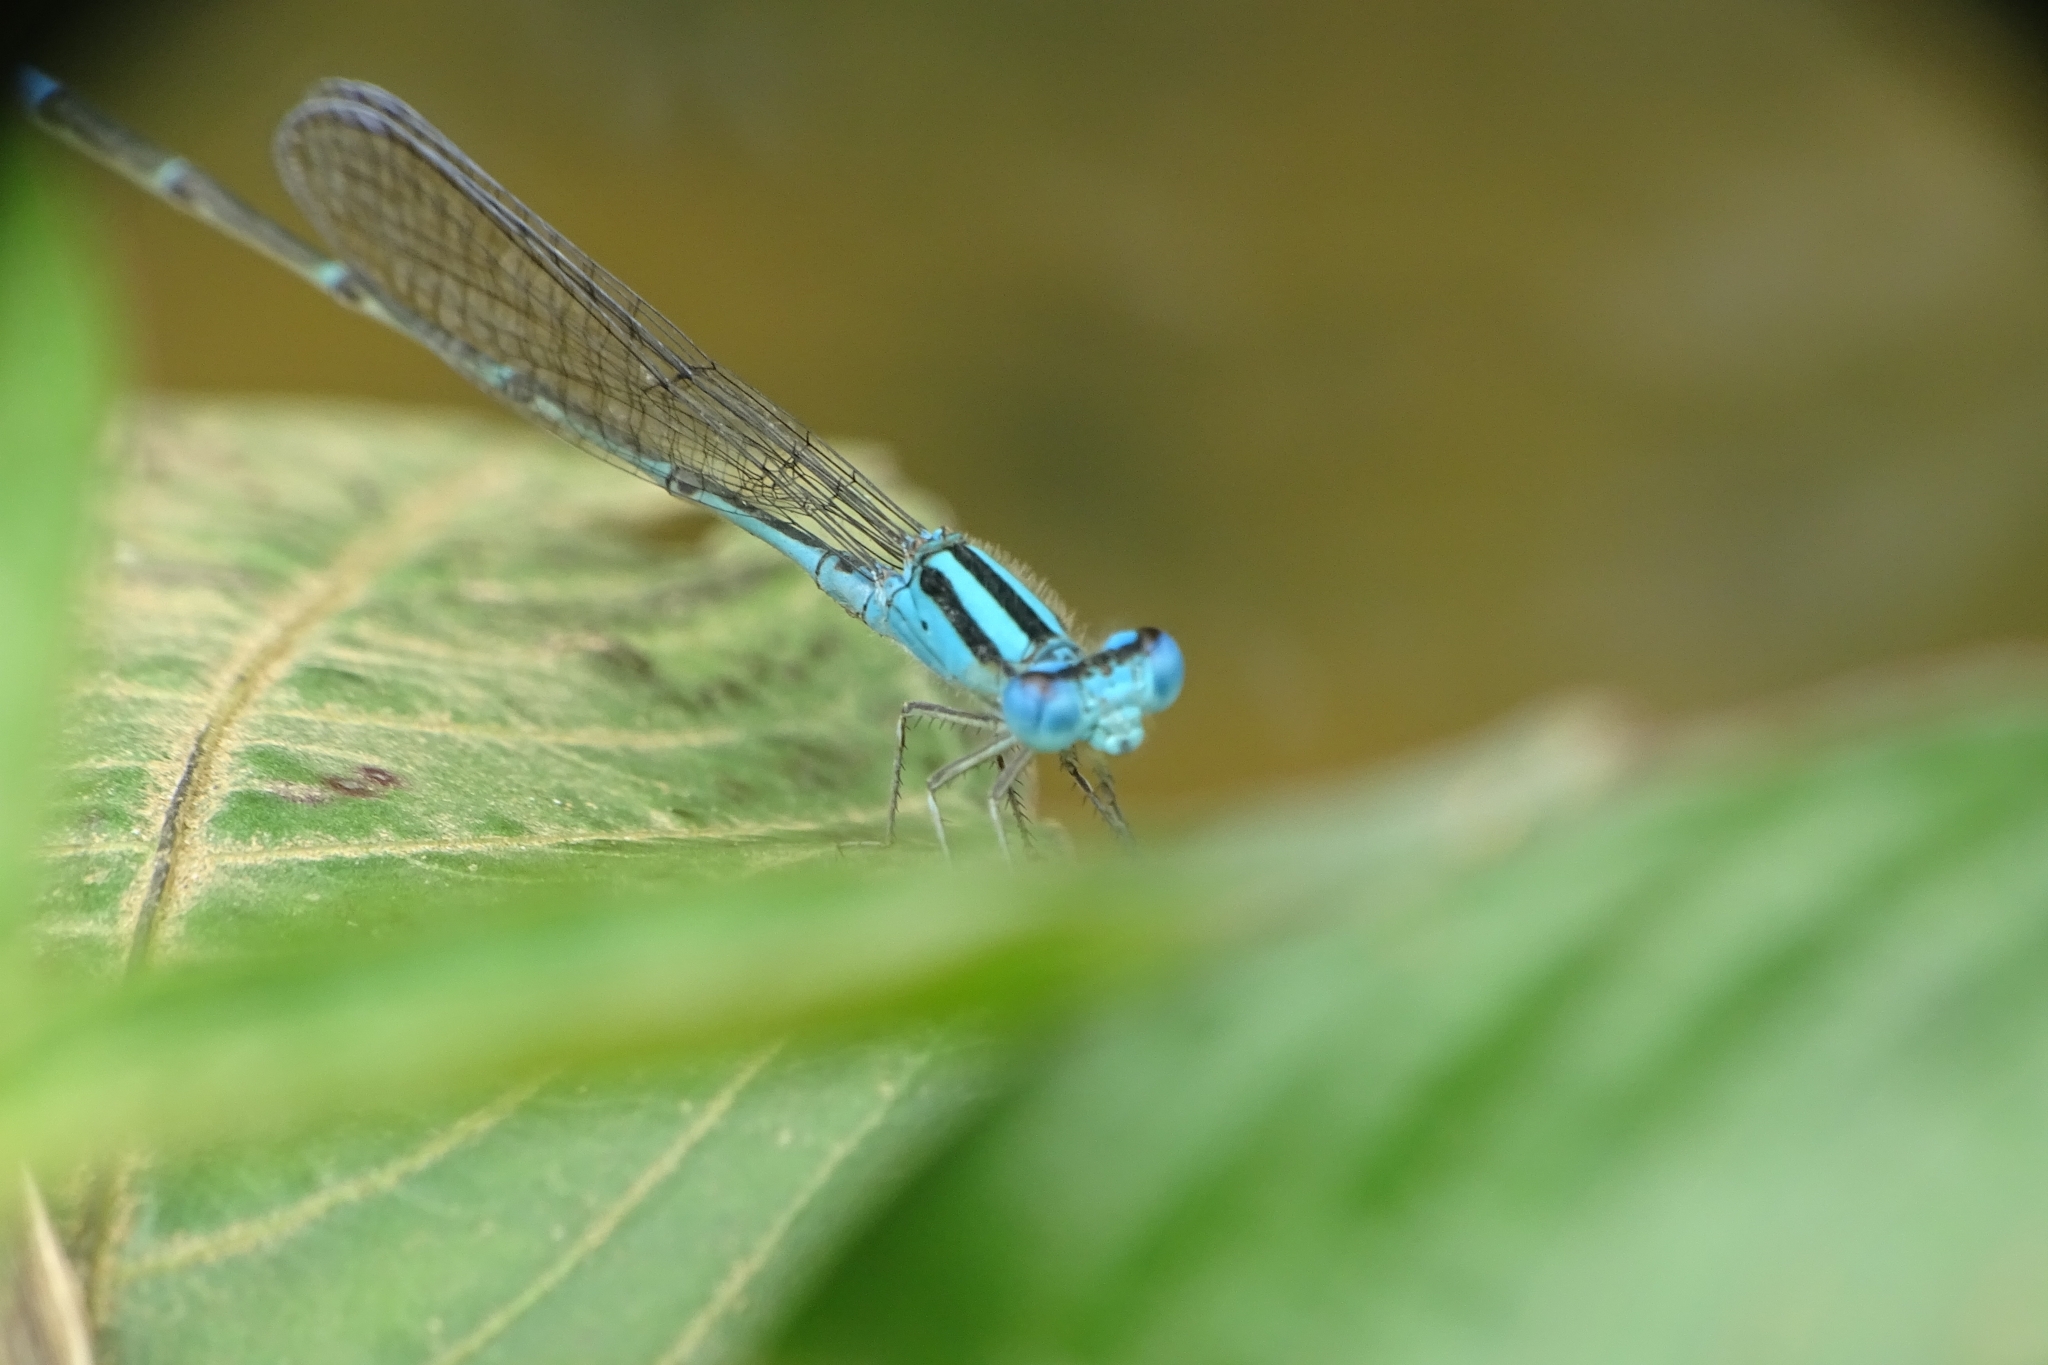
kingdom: Animalia
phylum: Arthropoda
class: Insecta
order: Odonata
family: Coenagrionidae
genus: Pseudagrion
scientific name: Pseudagrion microcephalum
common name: Blue riverdamsel
